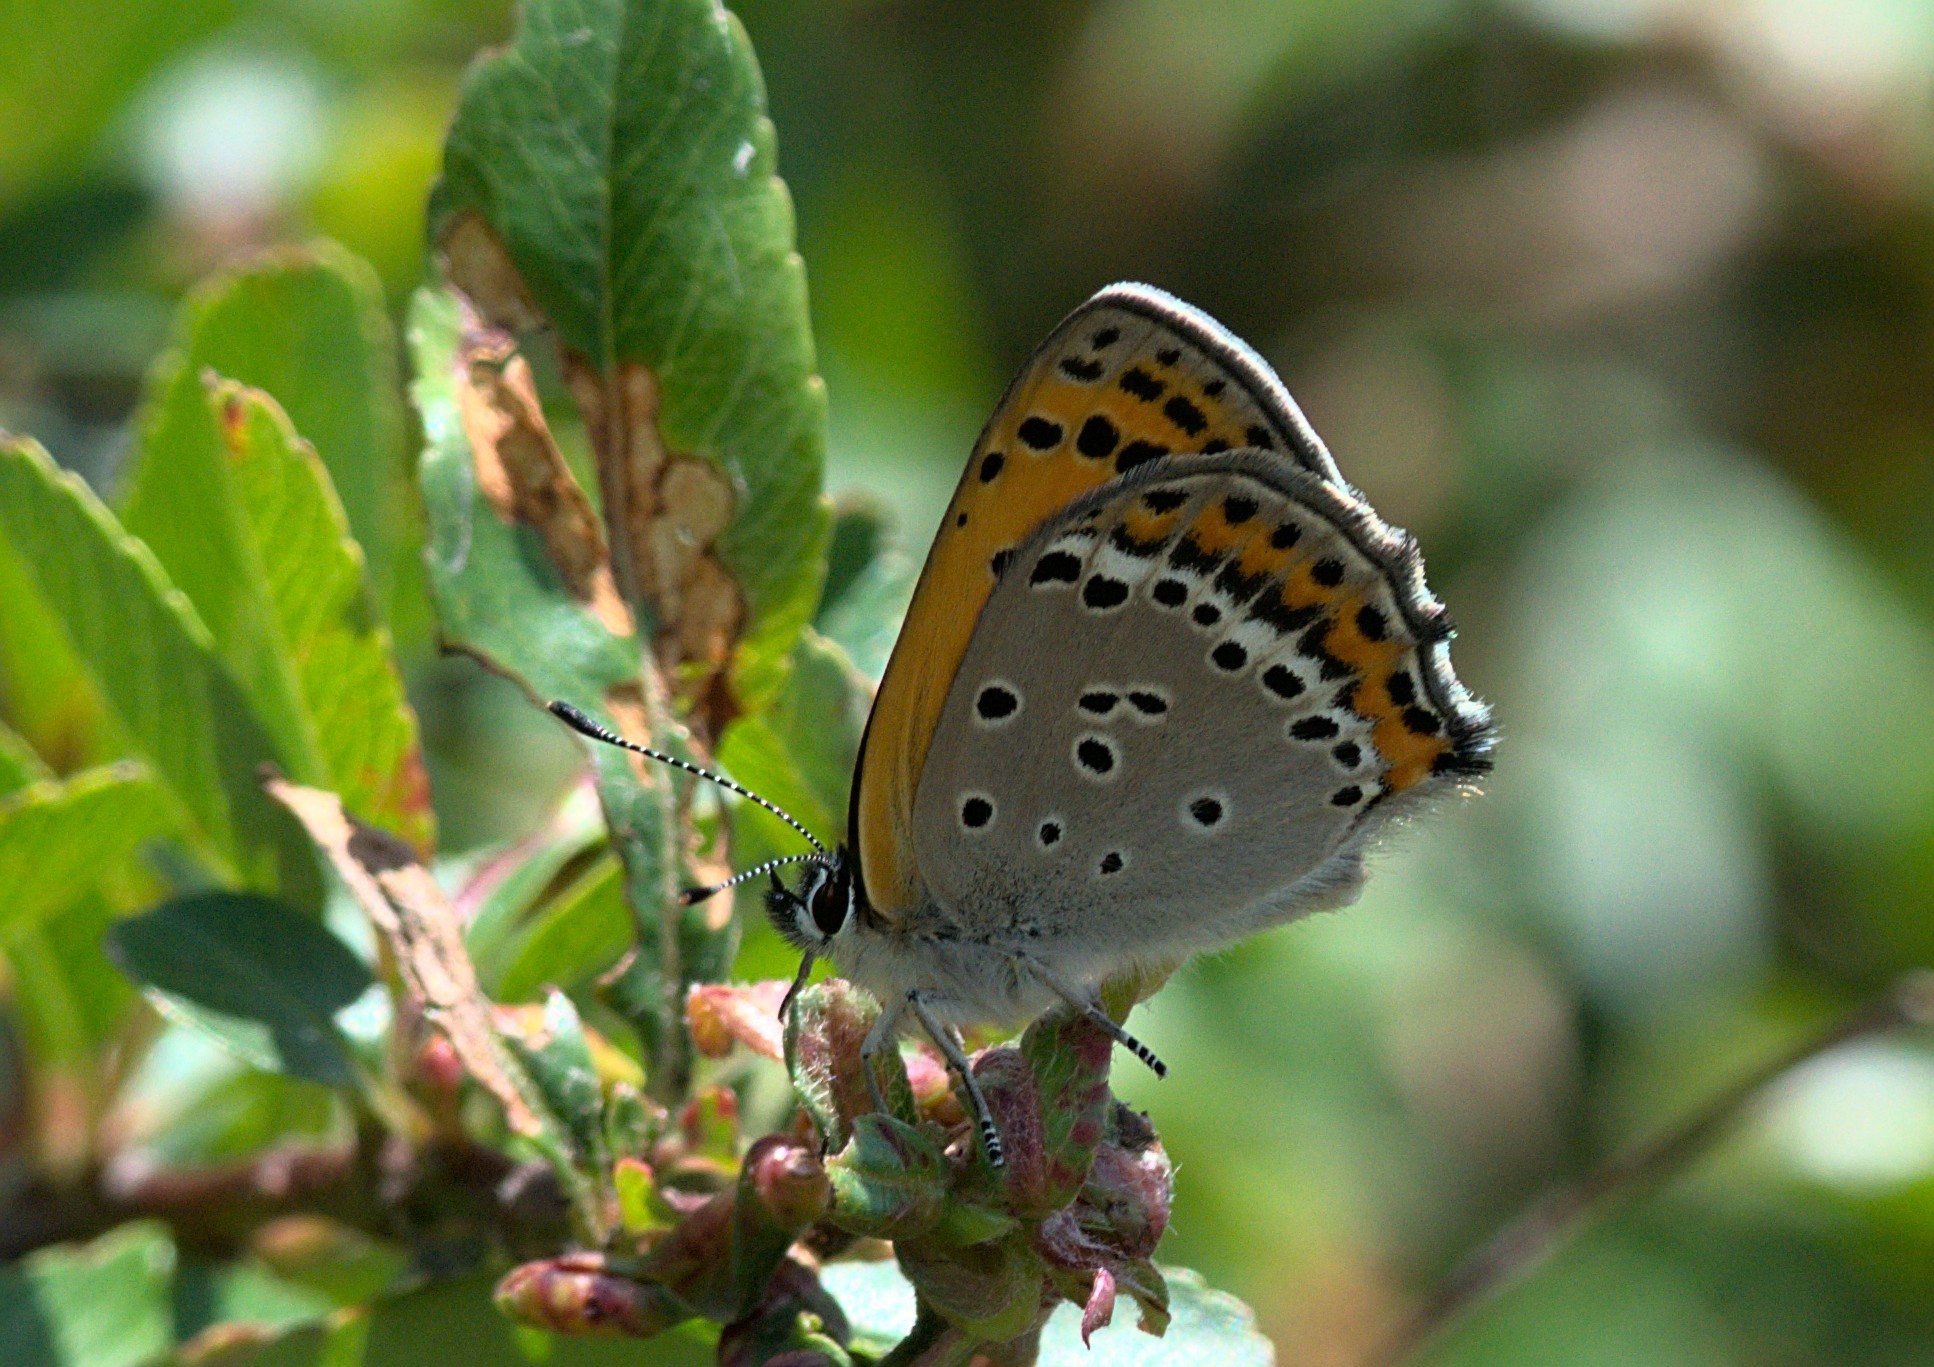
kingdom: Animalia
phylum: Arthropoda
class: Insecta
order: Lepidoptera
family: Lycaenidae
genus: Lycaena
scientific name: Lycaena panava
